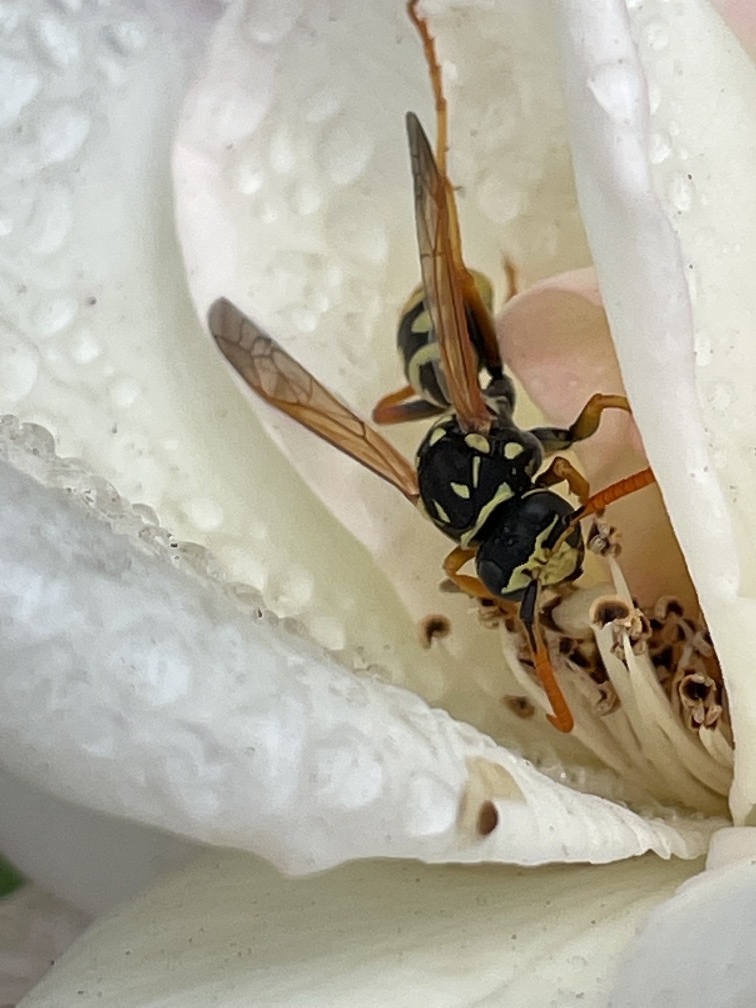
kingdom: Animalia
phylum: Arthropoda
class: Insecta
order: Hymenoptera
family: Eumenidae
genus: Polistes
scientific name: Polistes dominula
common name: Paper wasp
